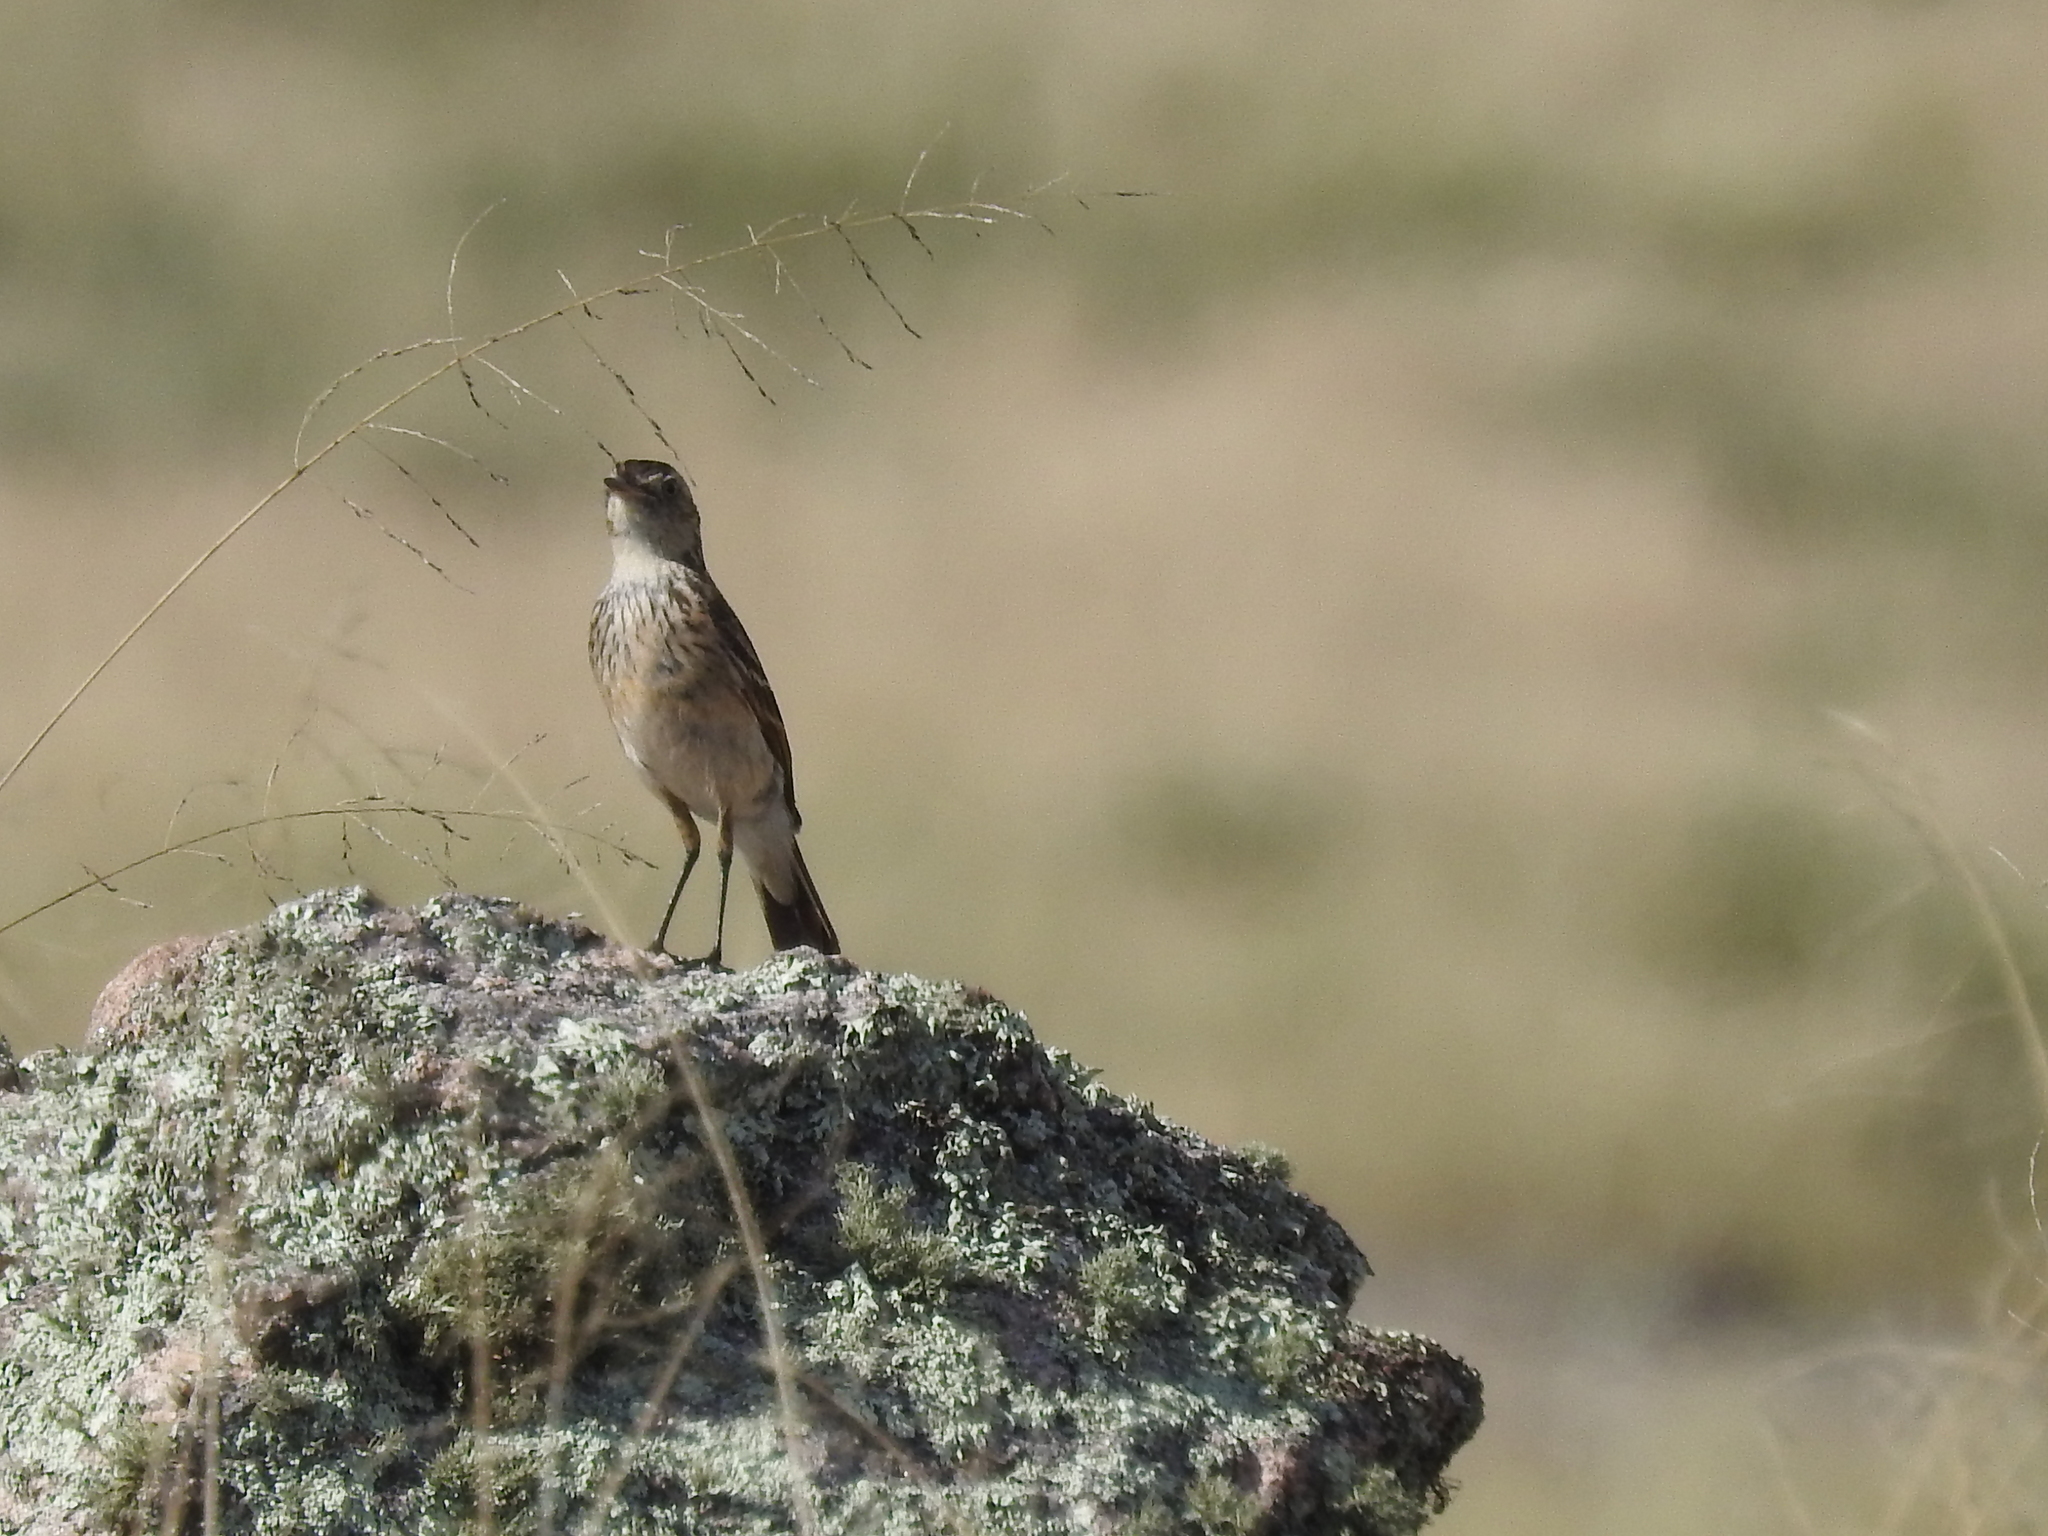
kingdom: Animalia
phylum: Chordata
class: Aves
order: Passeriformes
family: Tyrannidae
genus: Hymenops
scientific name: Hymenops perspicillatus
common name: Spectacled tyrant
